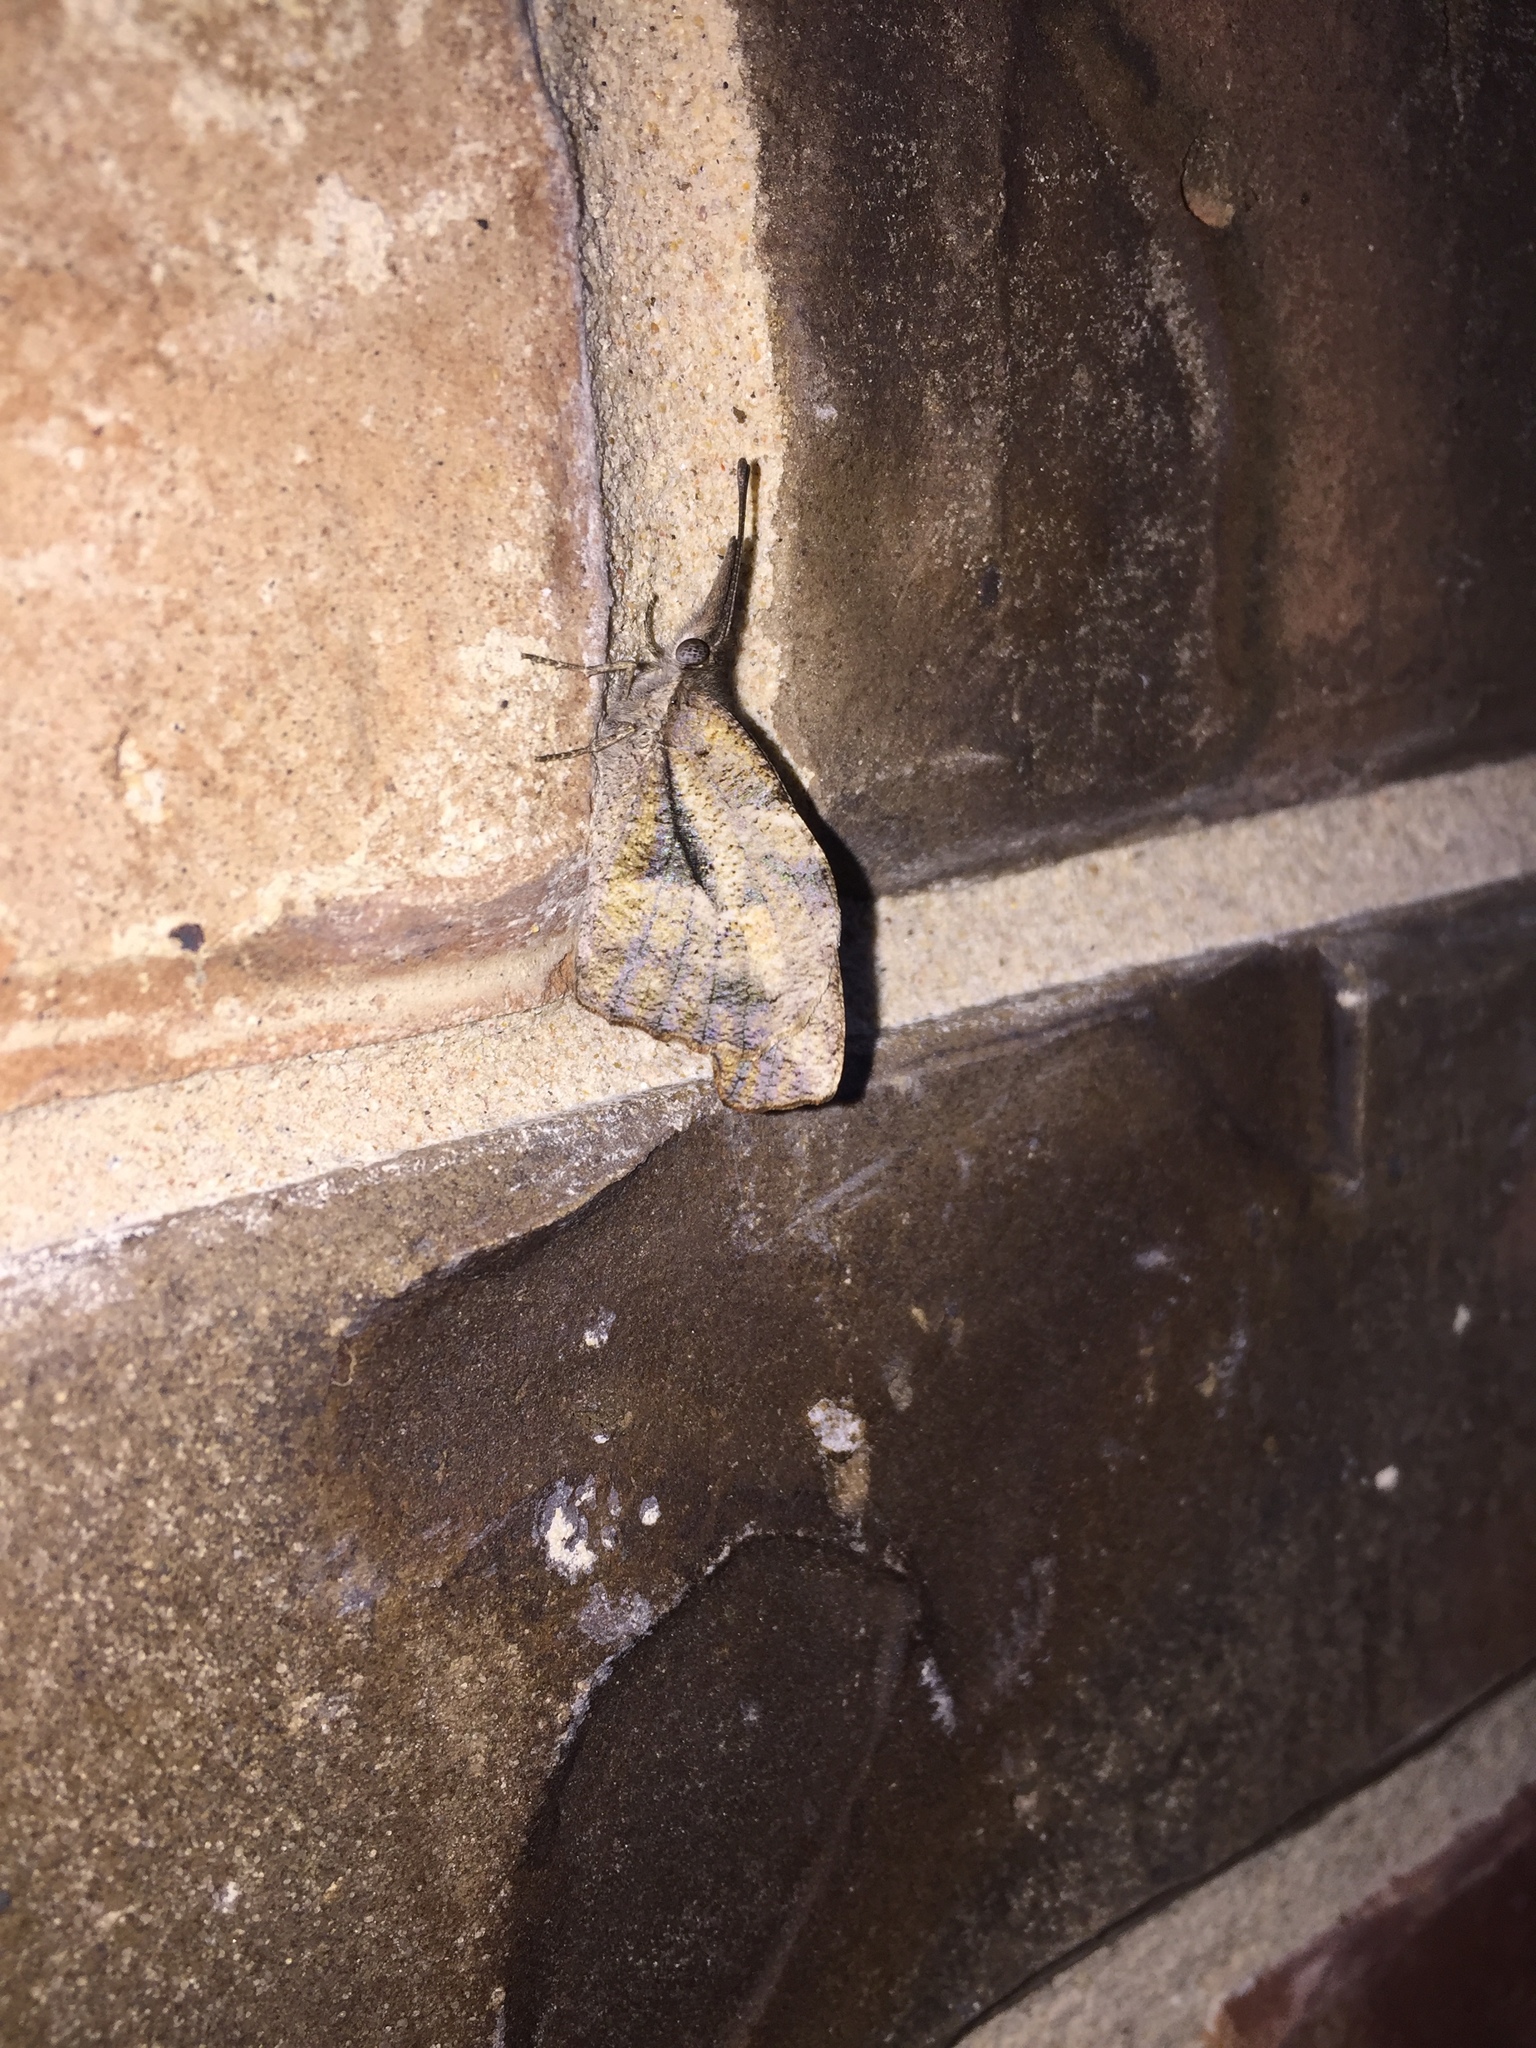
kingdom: Animalia
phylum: Arthropoda
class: Insecta
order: Lepidoptera
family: Nymphalidae
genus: Libytheana
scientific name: Libytheana carinenta
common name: American snout
